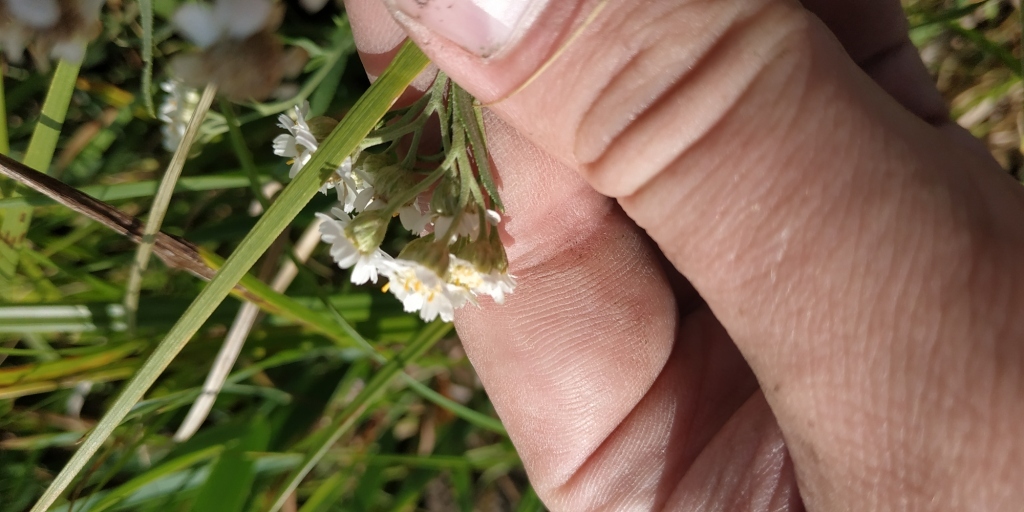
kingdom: Plantae
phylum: Tracheophyta
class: Magnoliopsida
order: Asterales
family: Asteraceae
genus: Achillea
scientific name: Achillea salicifolia
